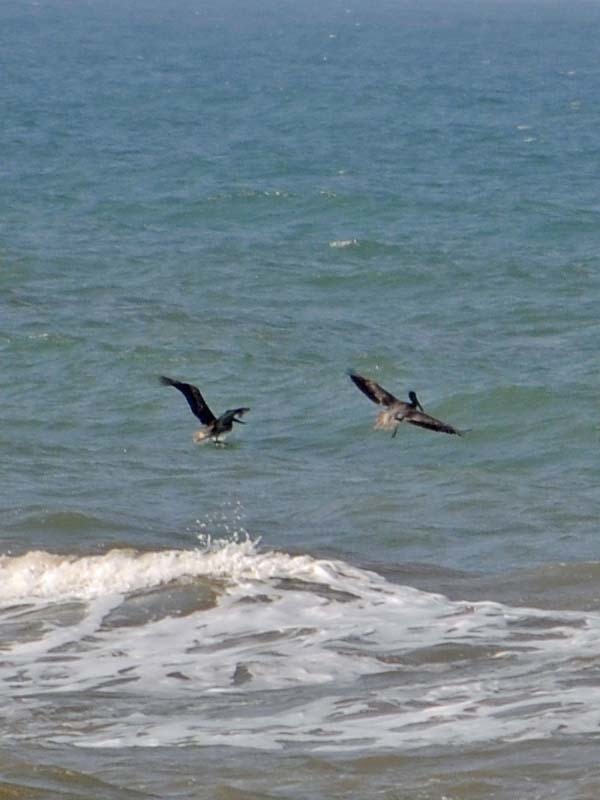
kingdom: Animalia
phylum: Chordata
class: Aves
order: Pelecaniformes
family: Pelecanidae
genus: Pelecanus
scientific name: Pelecanus occidentalis
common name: Brown pelican
